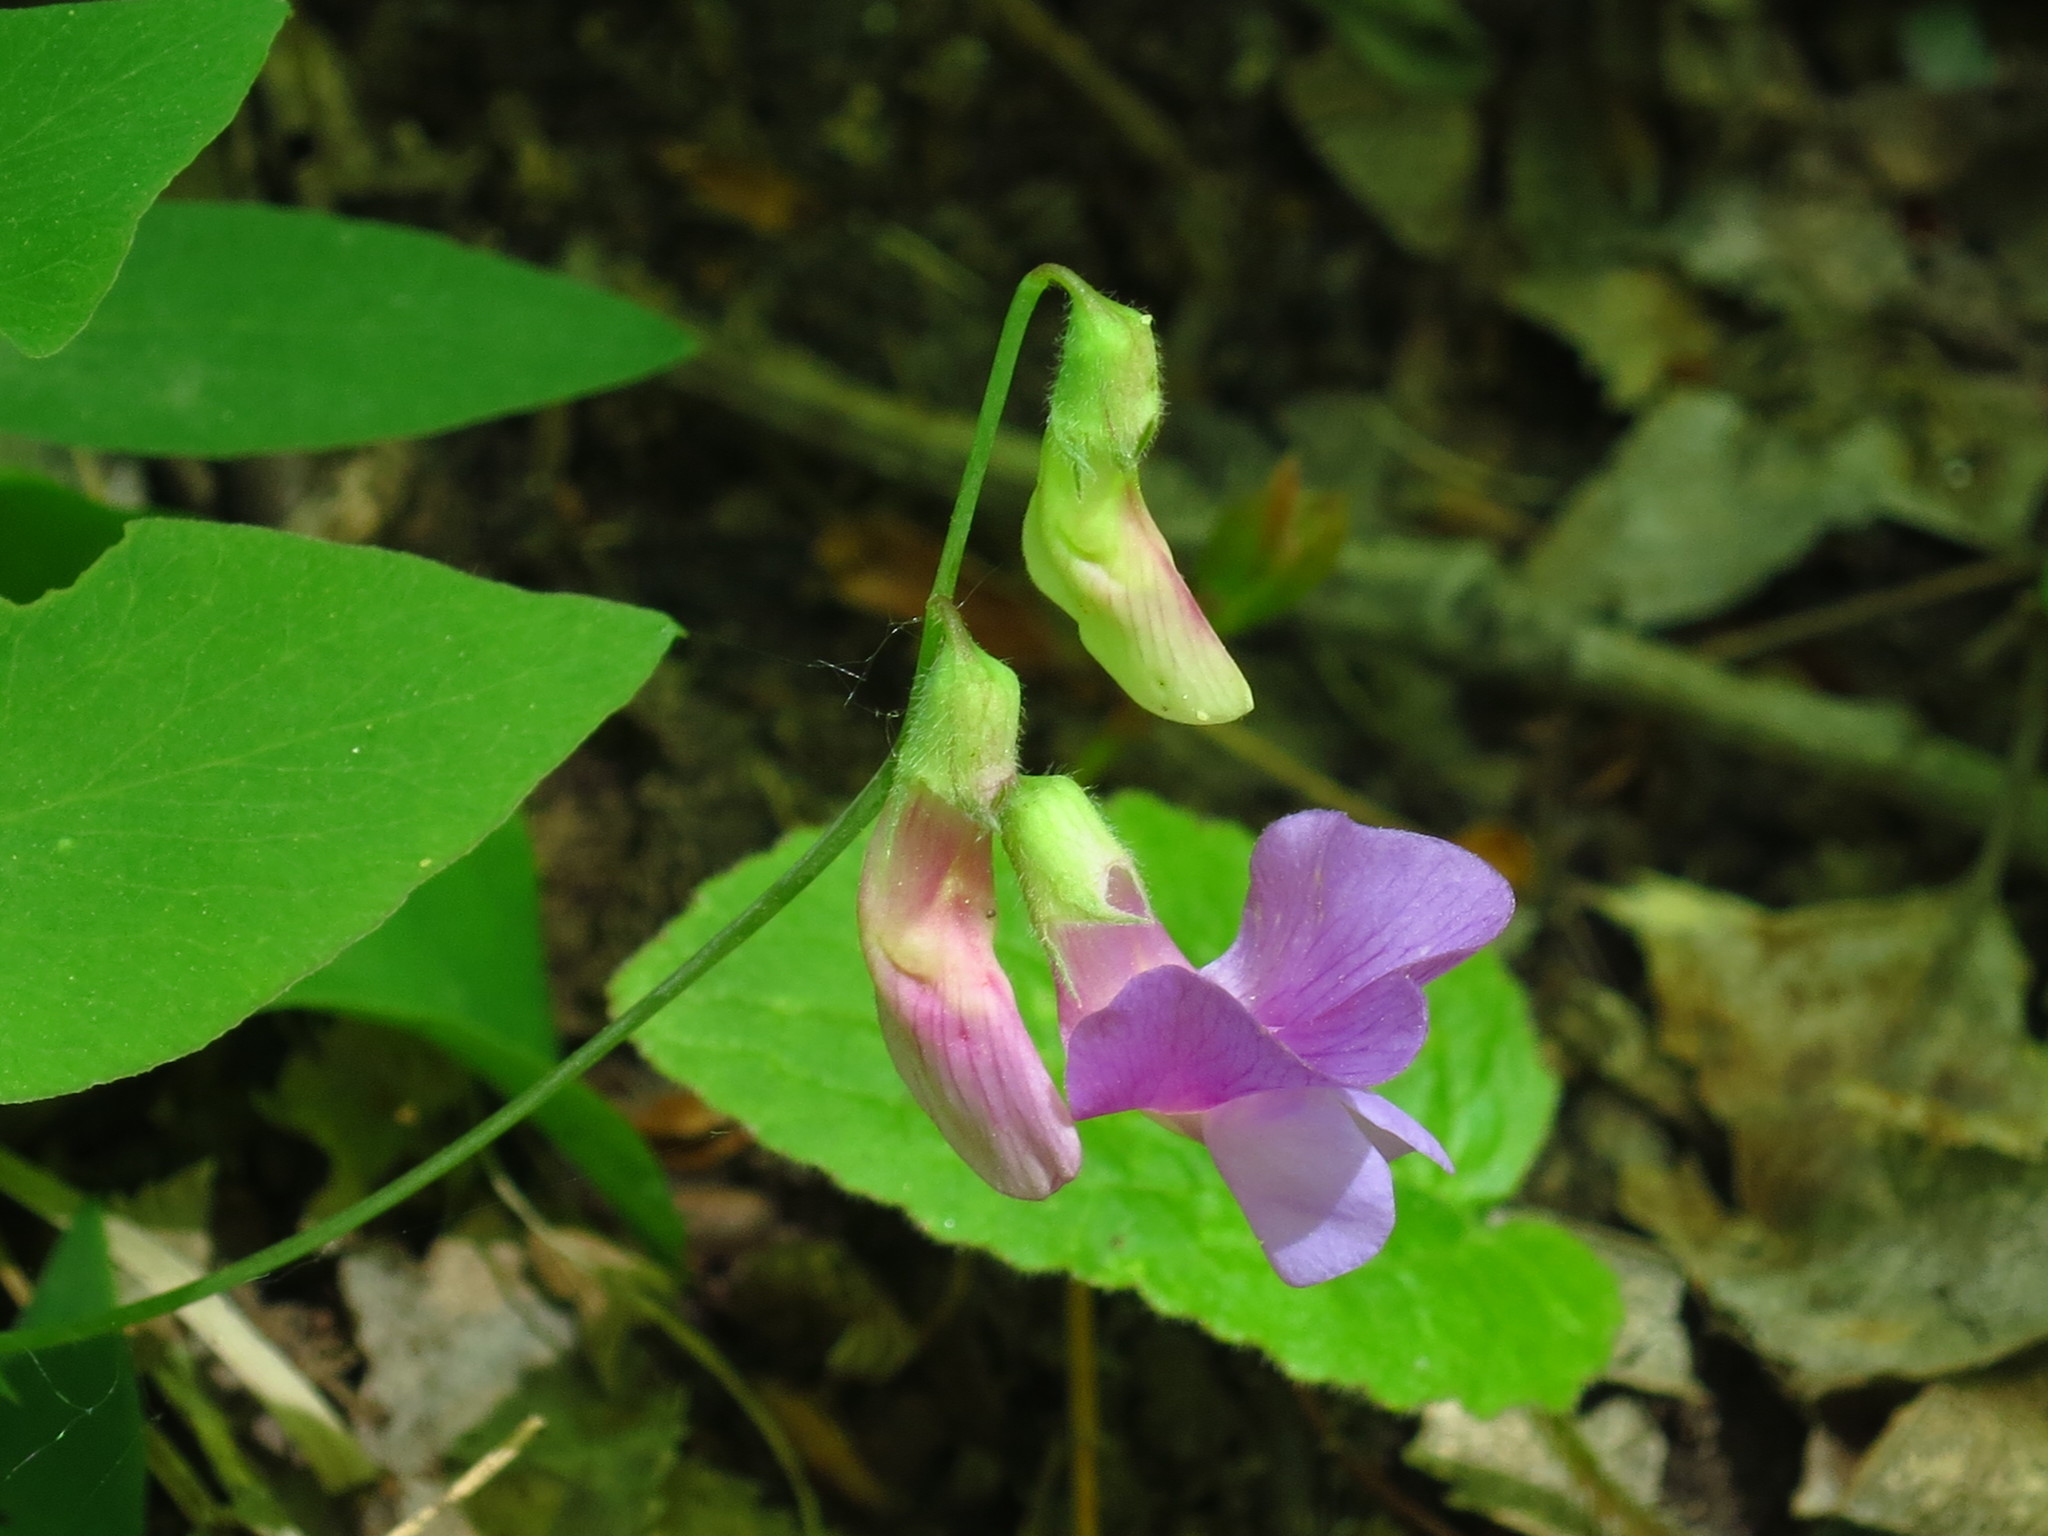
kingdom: Plantae
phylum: Tracheophyta
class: Magnoliopsida
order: Fabales
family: Fabaceae
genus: Lathyrus
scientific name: Lathyrus humilis
